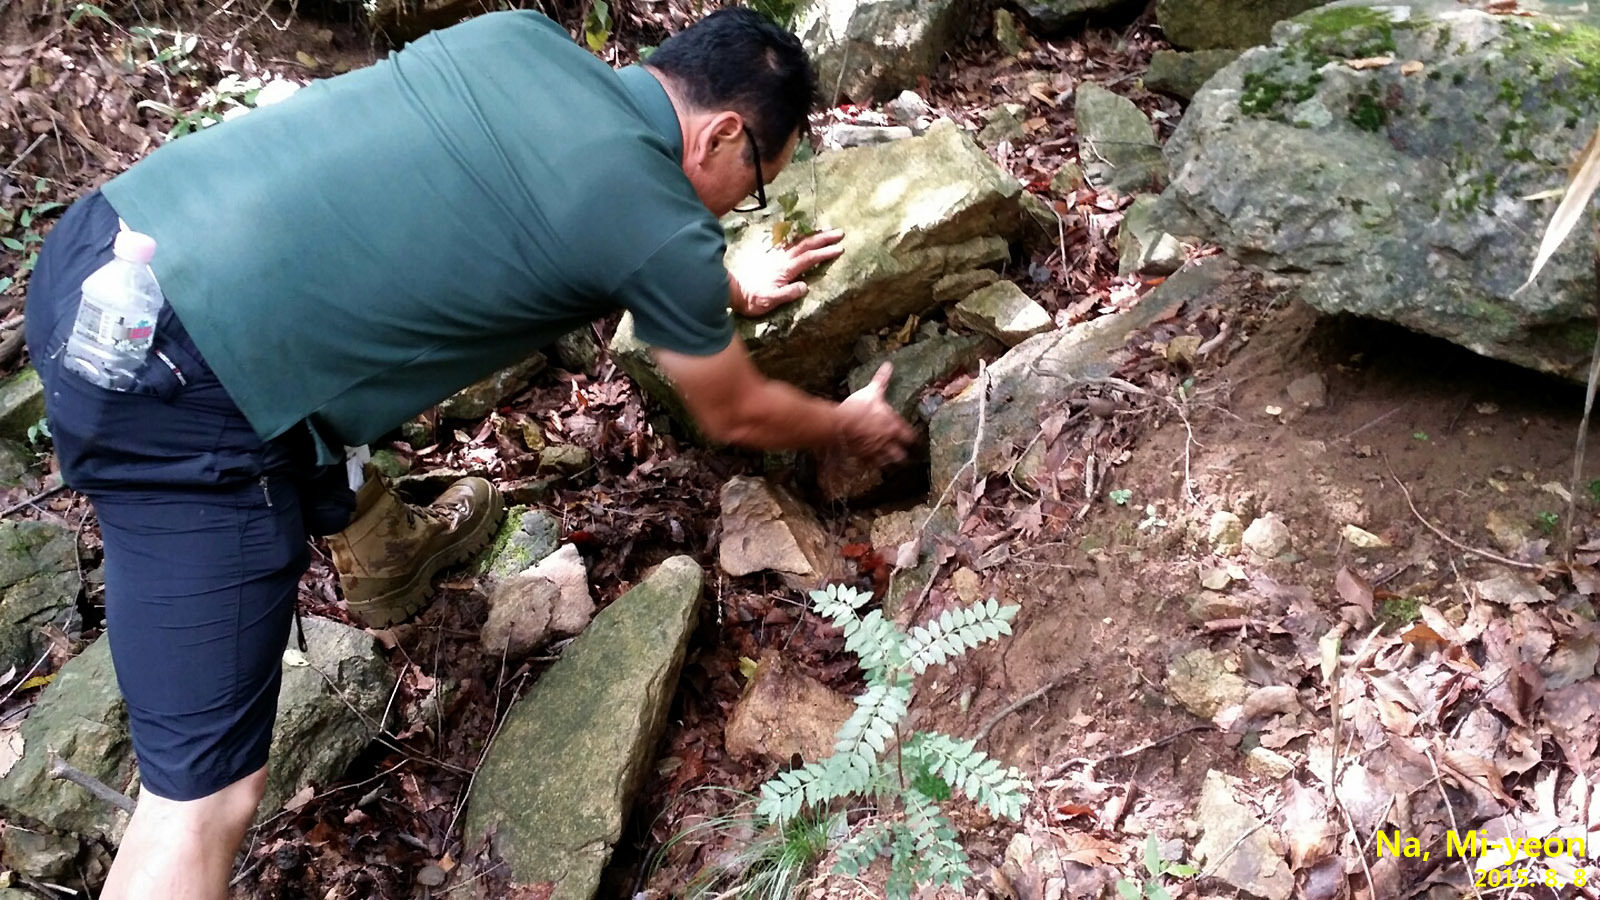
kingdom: Animalia
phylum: Chordata
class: Amphibia
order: Caudata
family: Plethodontidae
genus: Karsenia
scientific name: Karsenia koreana
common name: Korean crevice salamander
